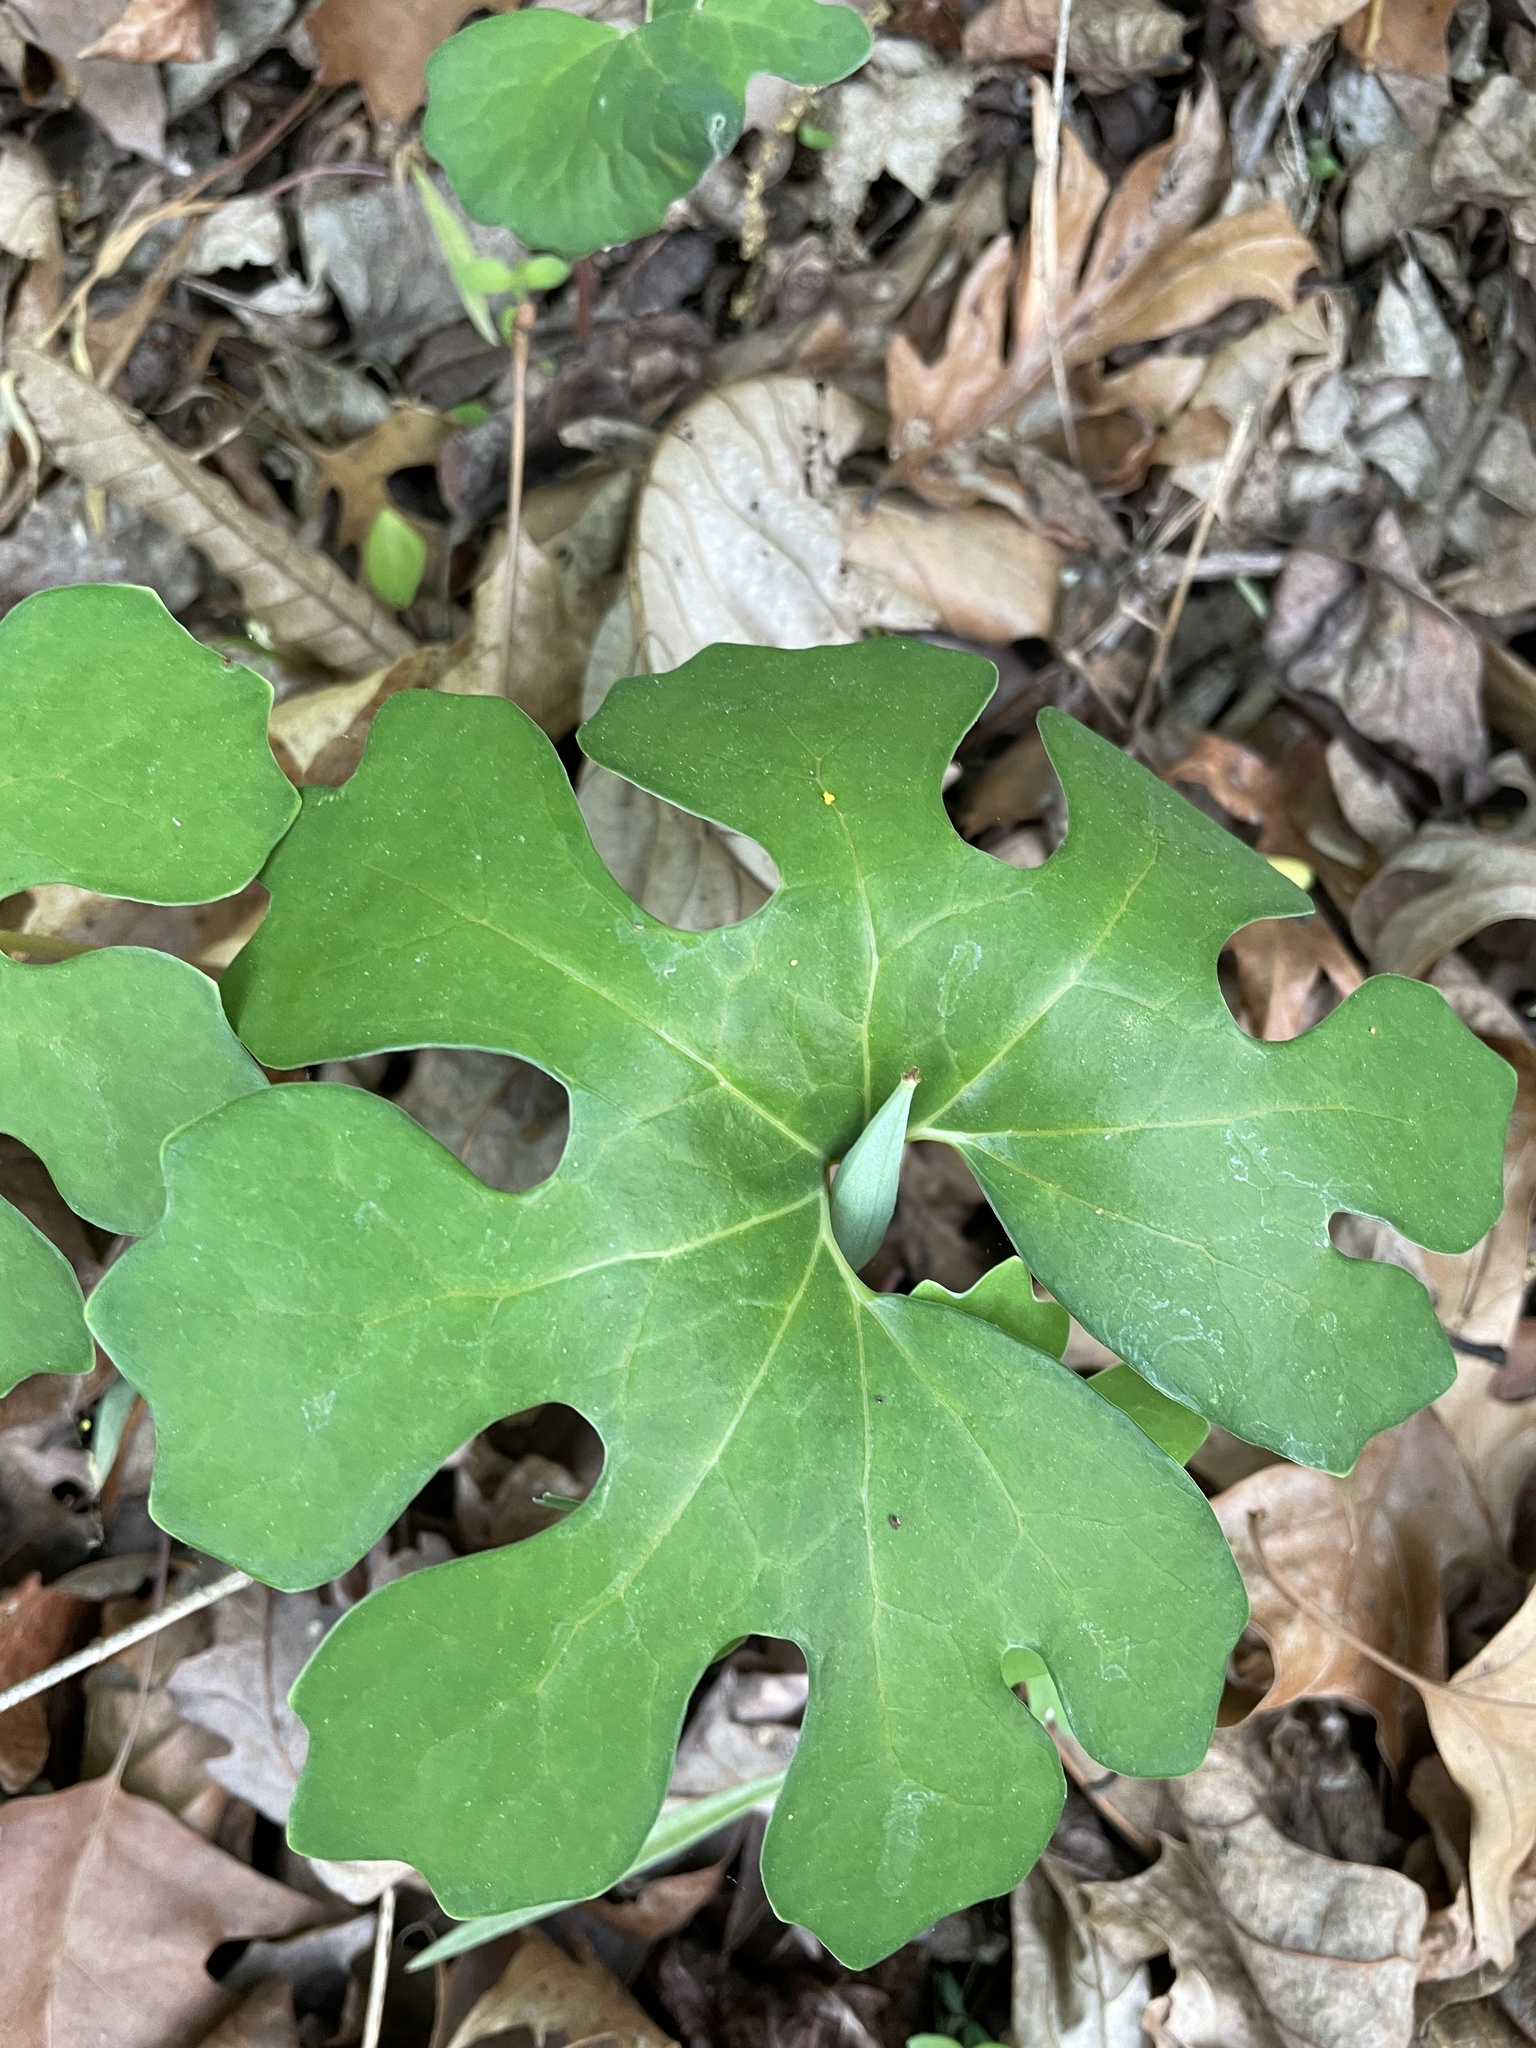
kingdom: Plantae
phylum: Tracheophyta
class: Magnoliopsida
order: Ranunculales
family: Papaveraceae
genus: Sanguinaria
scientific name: Sanguinaria canadensis
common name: Bloodroot
